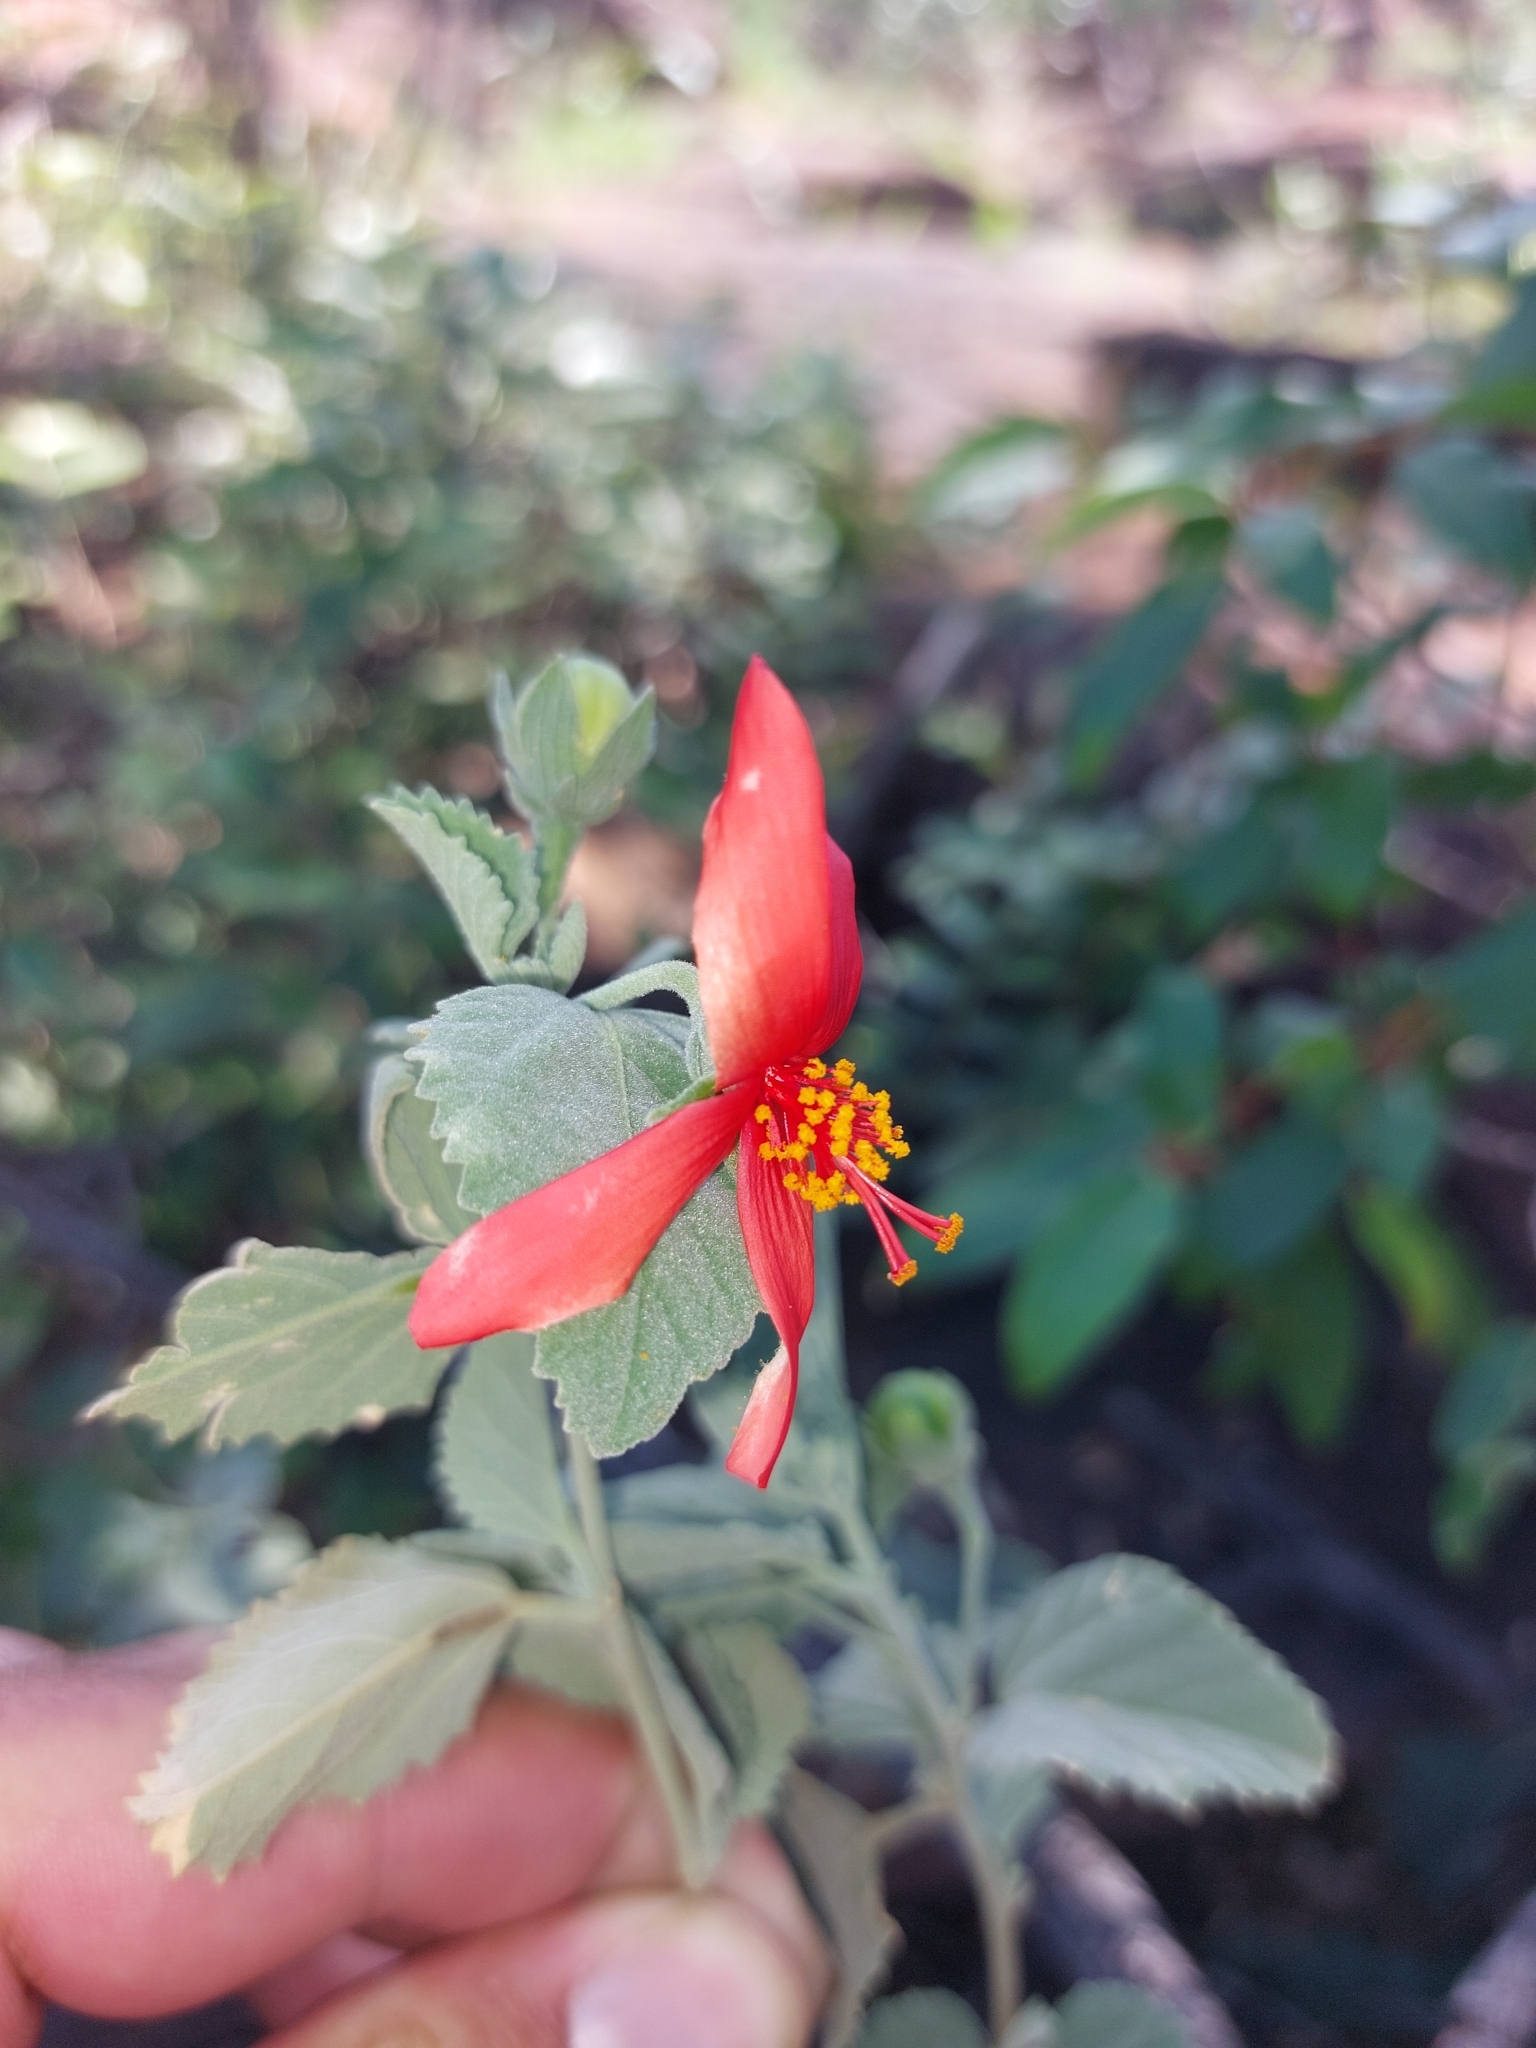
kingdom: Plantae
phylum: Tracheophyta
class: Magnoliopsida
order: Malvales
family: Malvaceae
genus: Hibiscus
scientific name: Hibiscus waterbergensis
